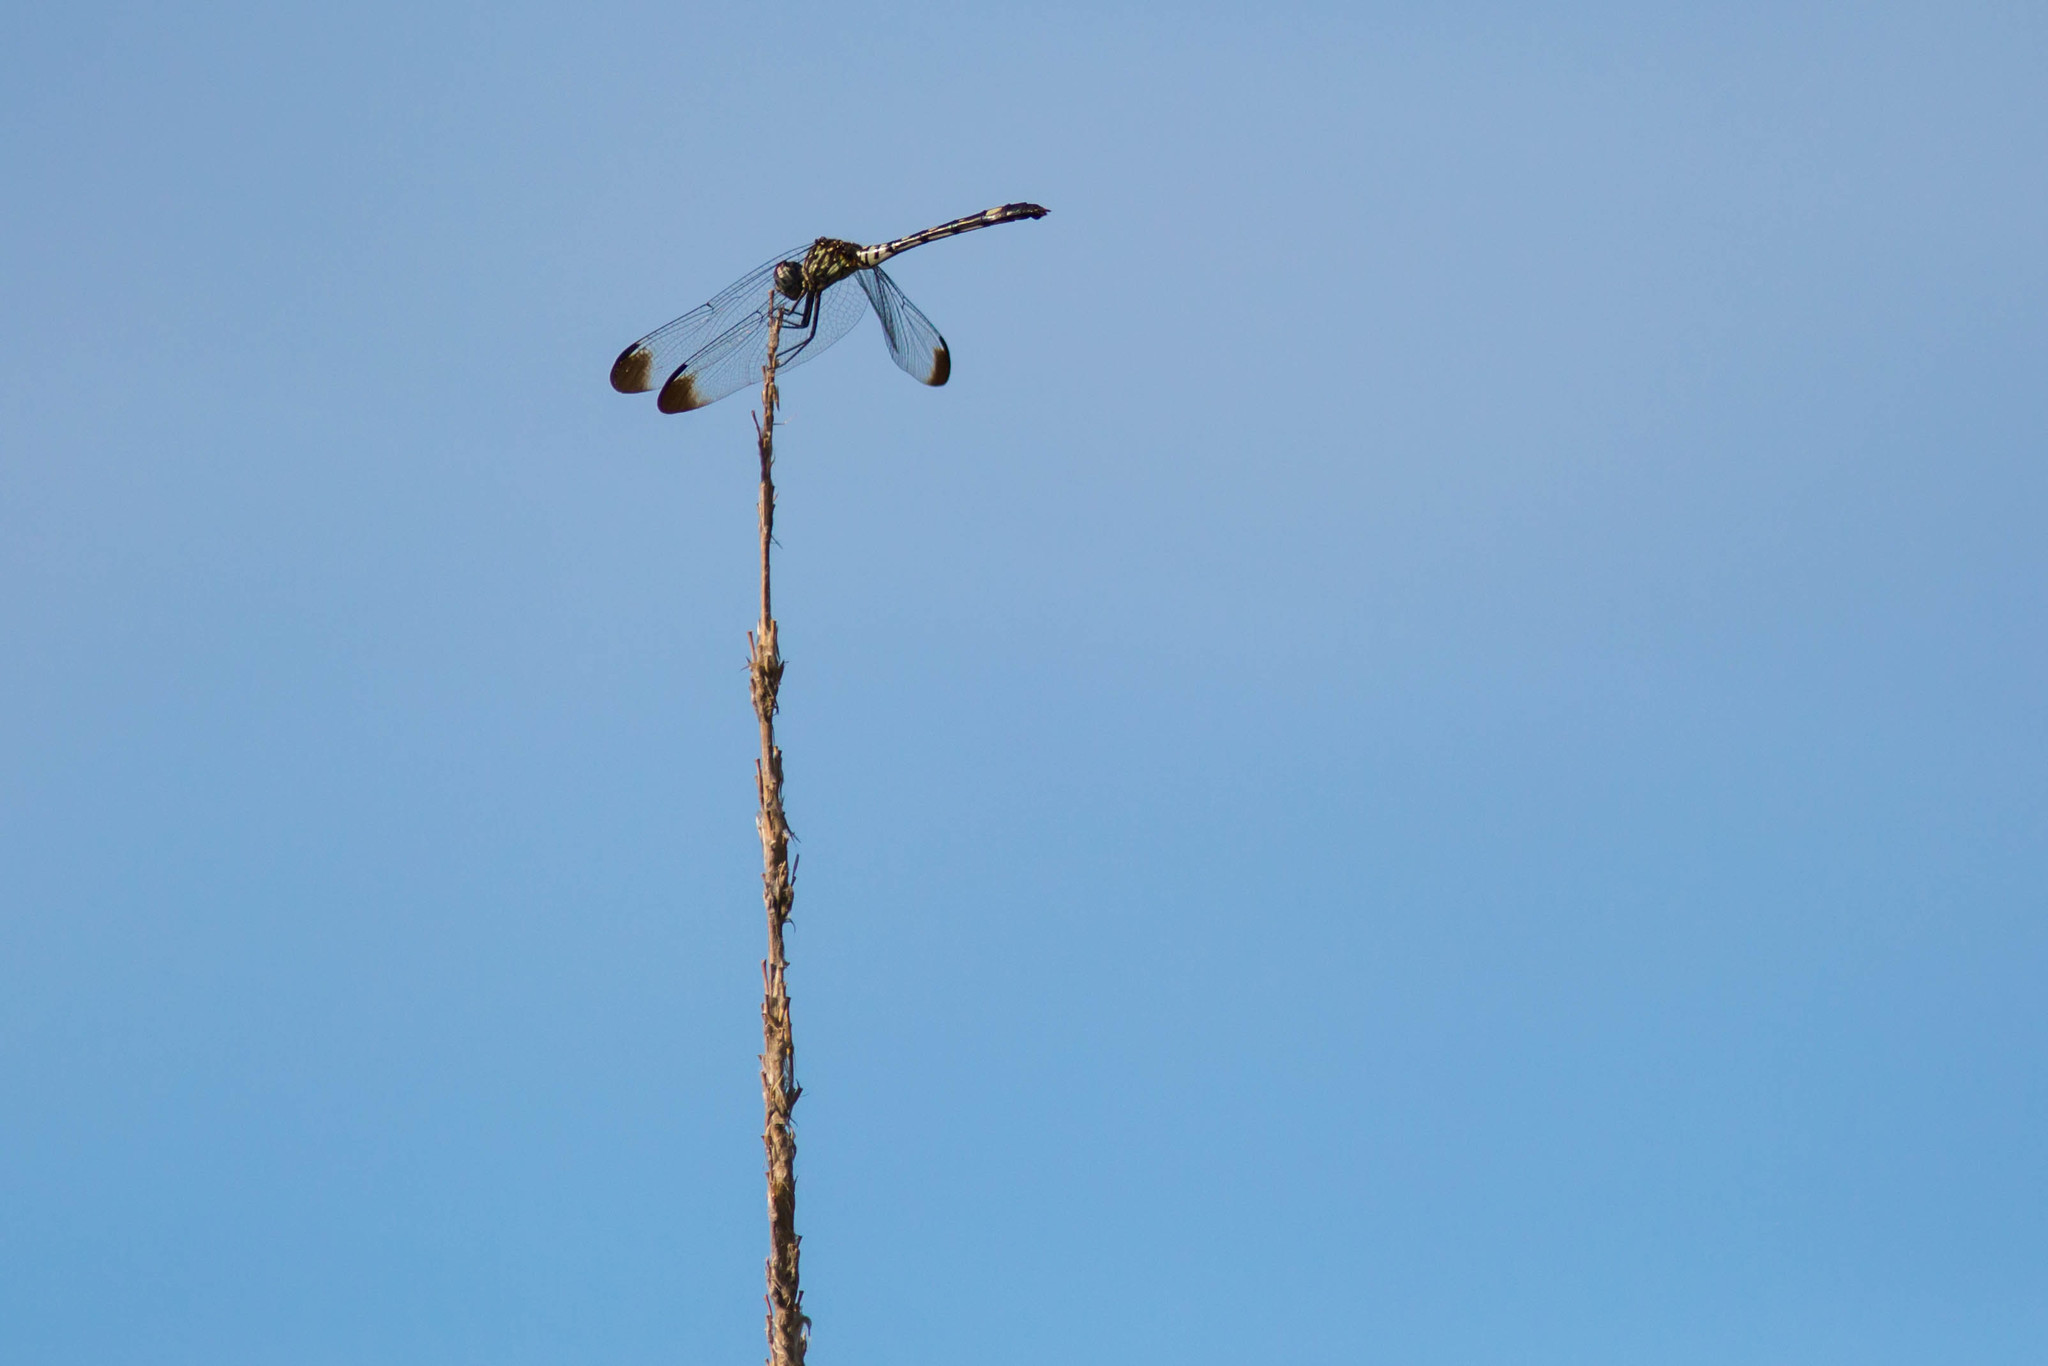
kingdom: Animalia
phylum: Arthropoda
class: Insecta
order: Odonata
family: Libellulidae
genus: Dythemis
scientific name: Dythemis velox
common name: Swift setwing
